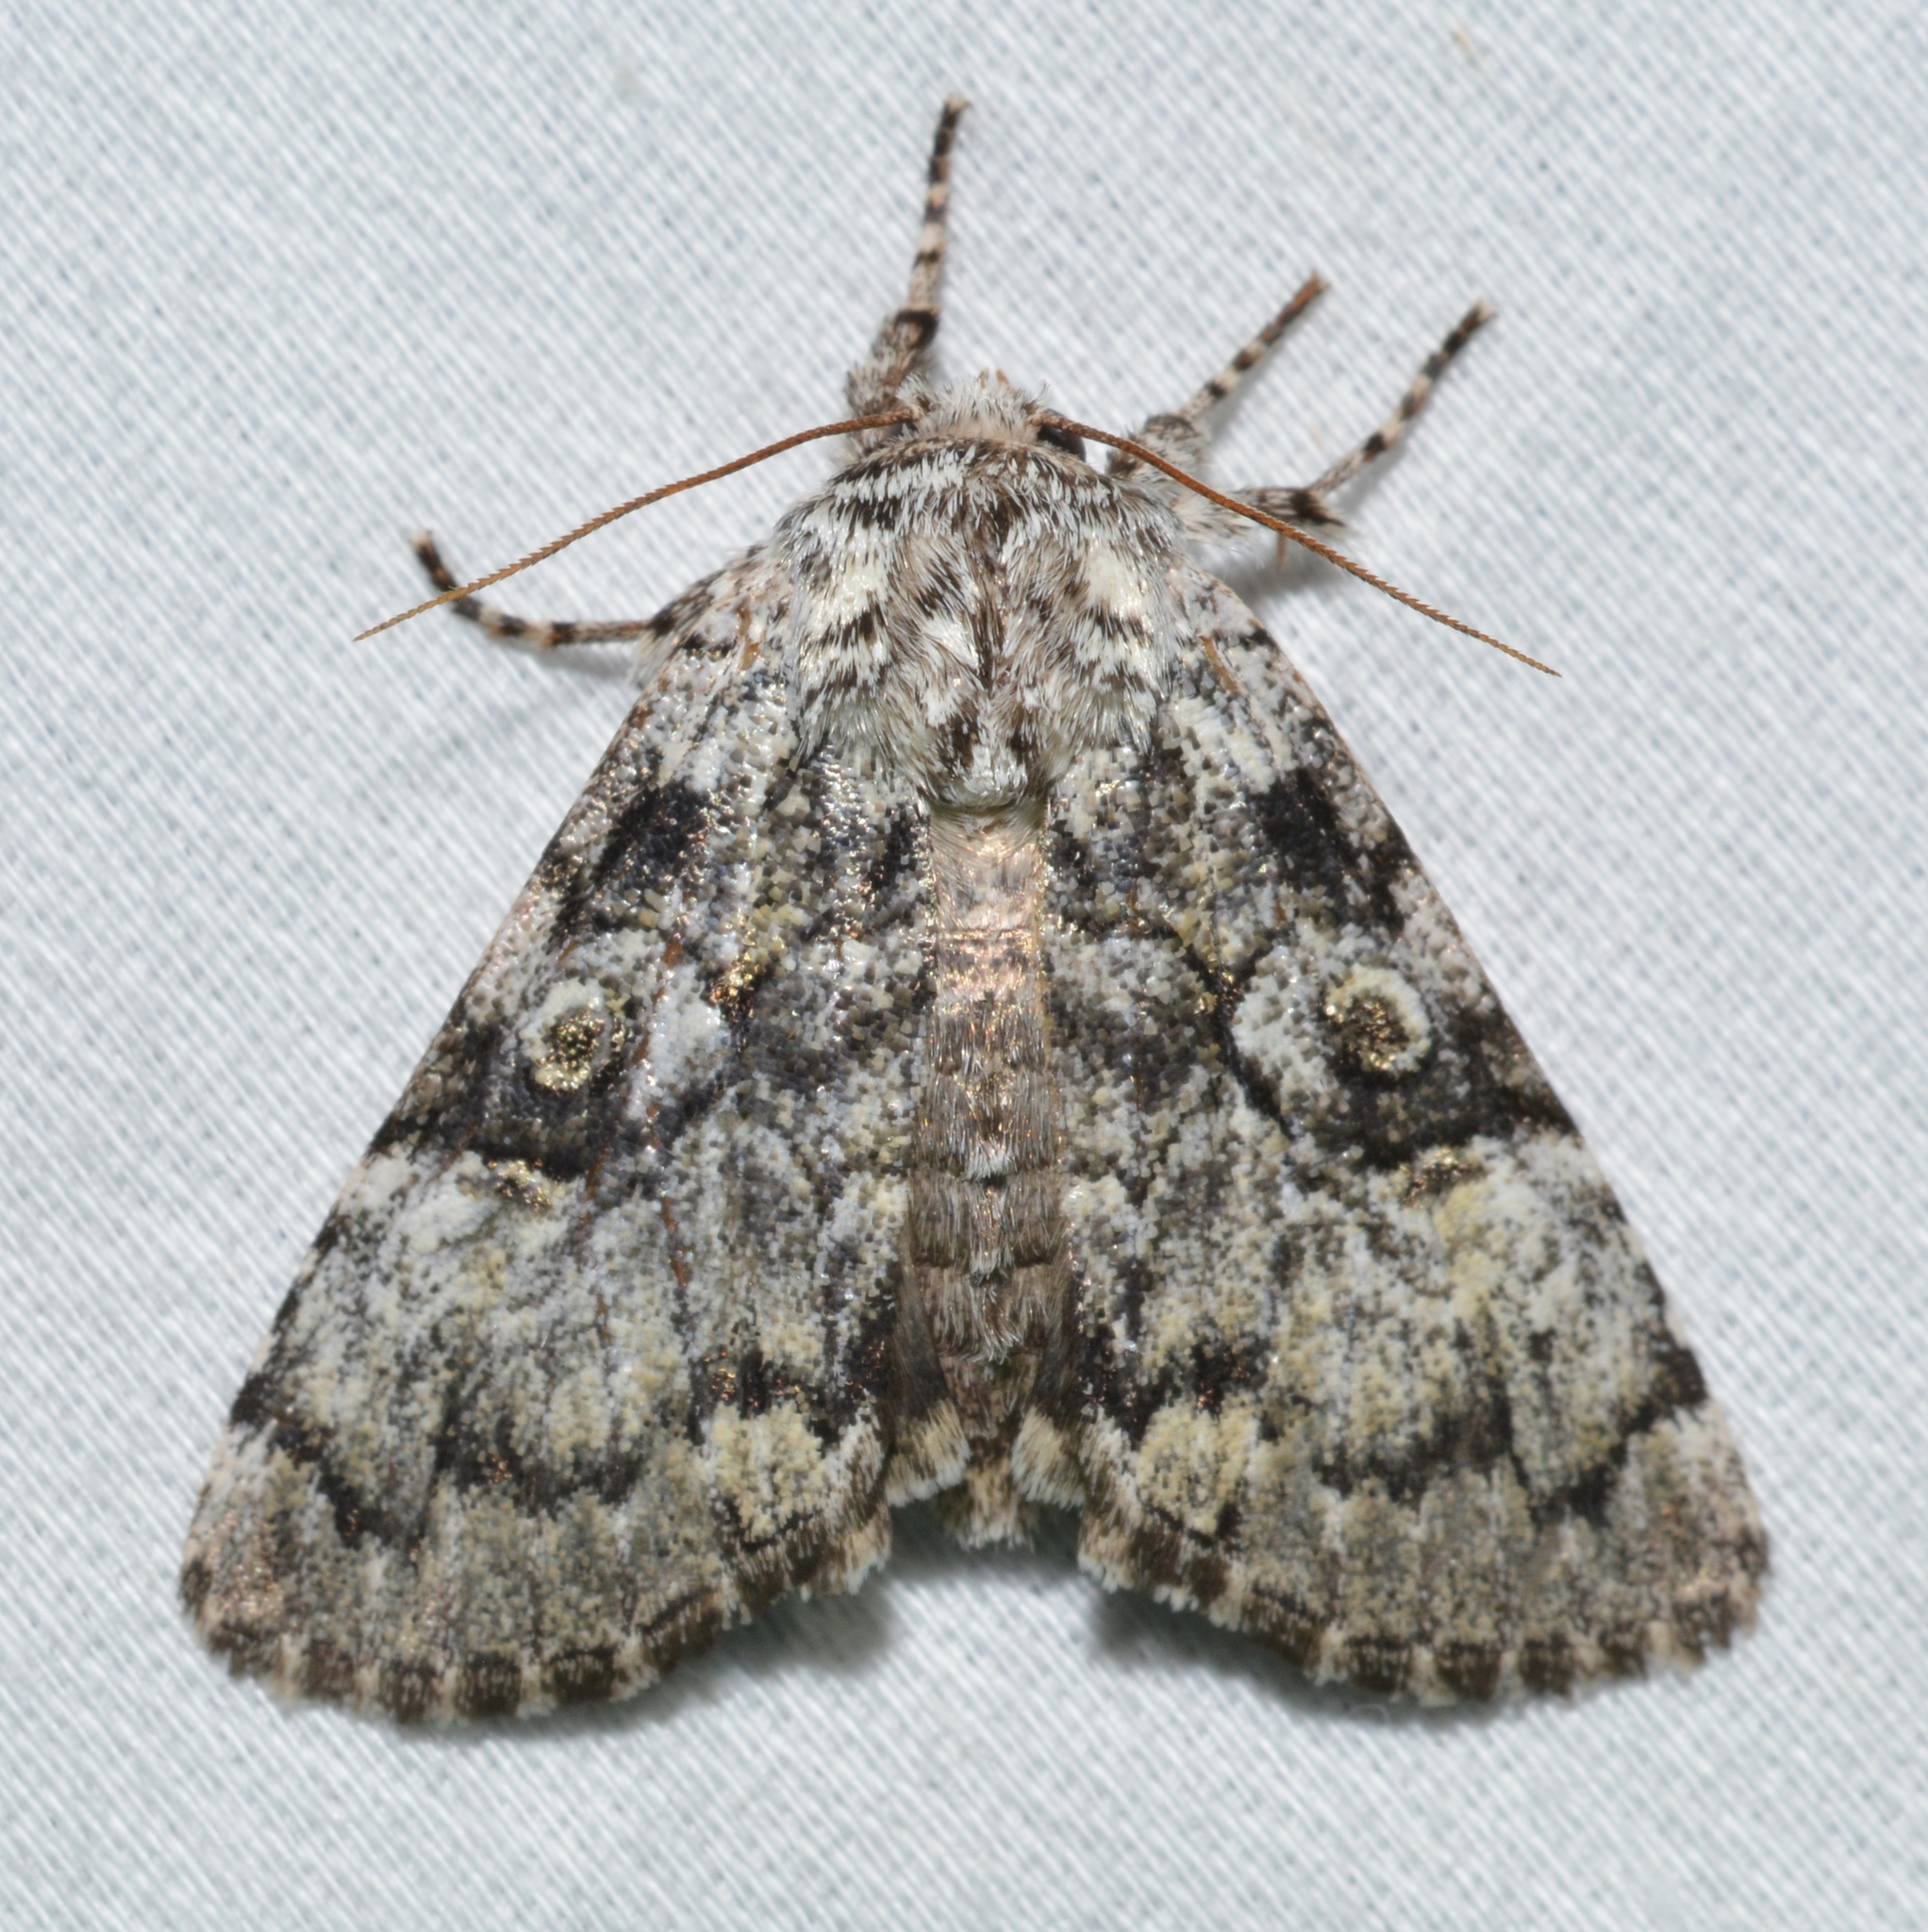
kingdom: Animalia
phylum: Arthropoda
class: Insecta
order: Lepidoptera
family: Noctuidae
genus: Charadra
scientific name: Charadra deridens
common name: Marbled tuffet
